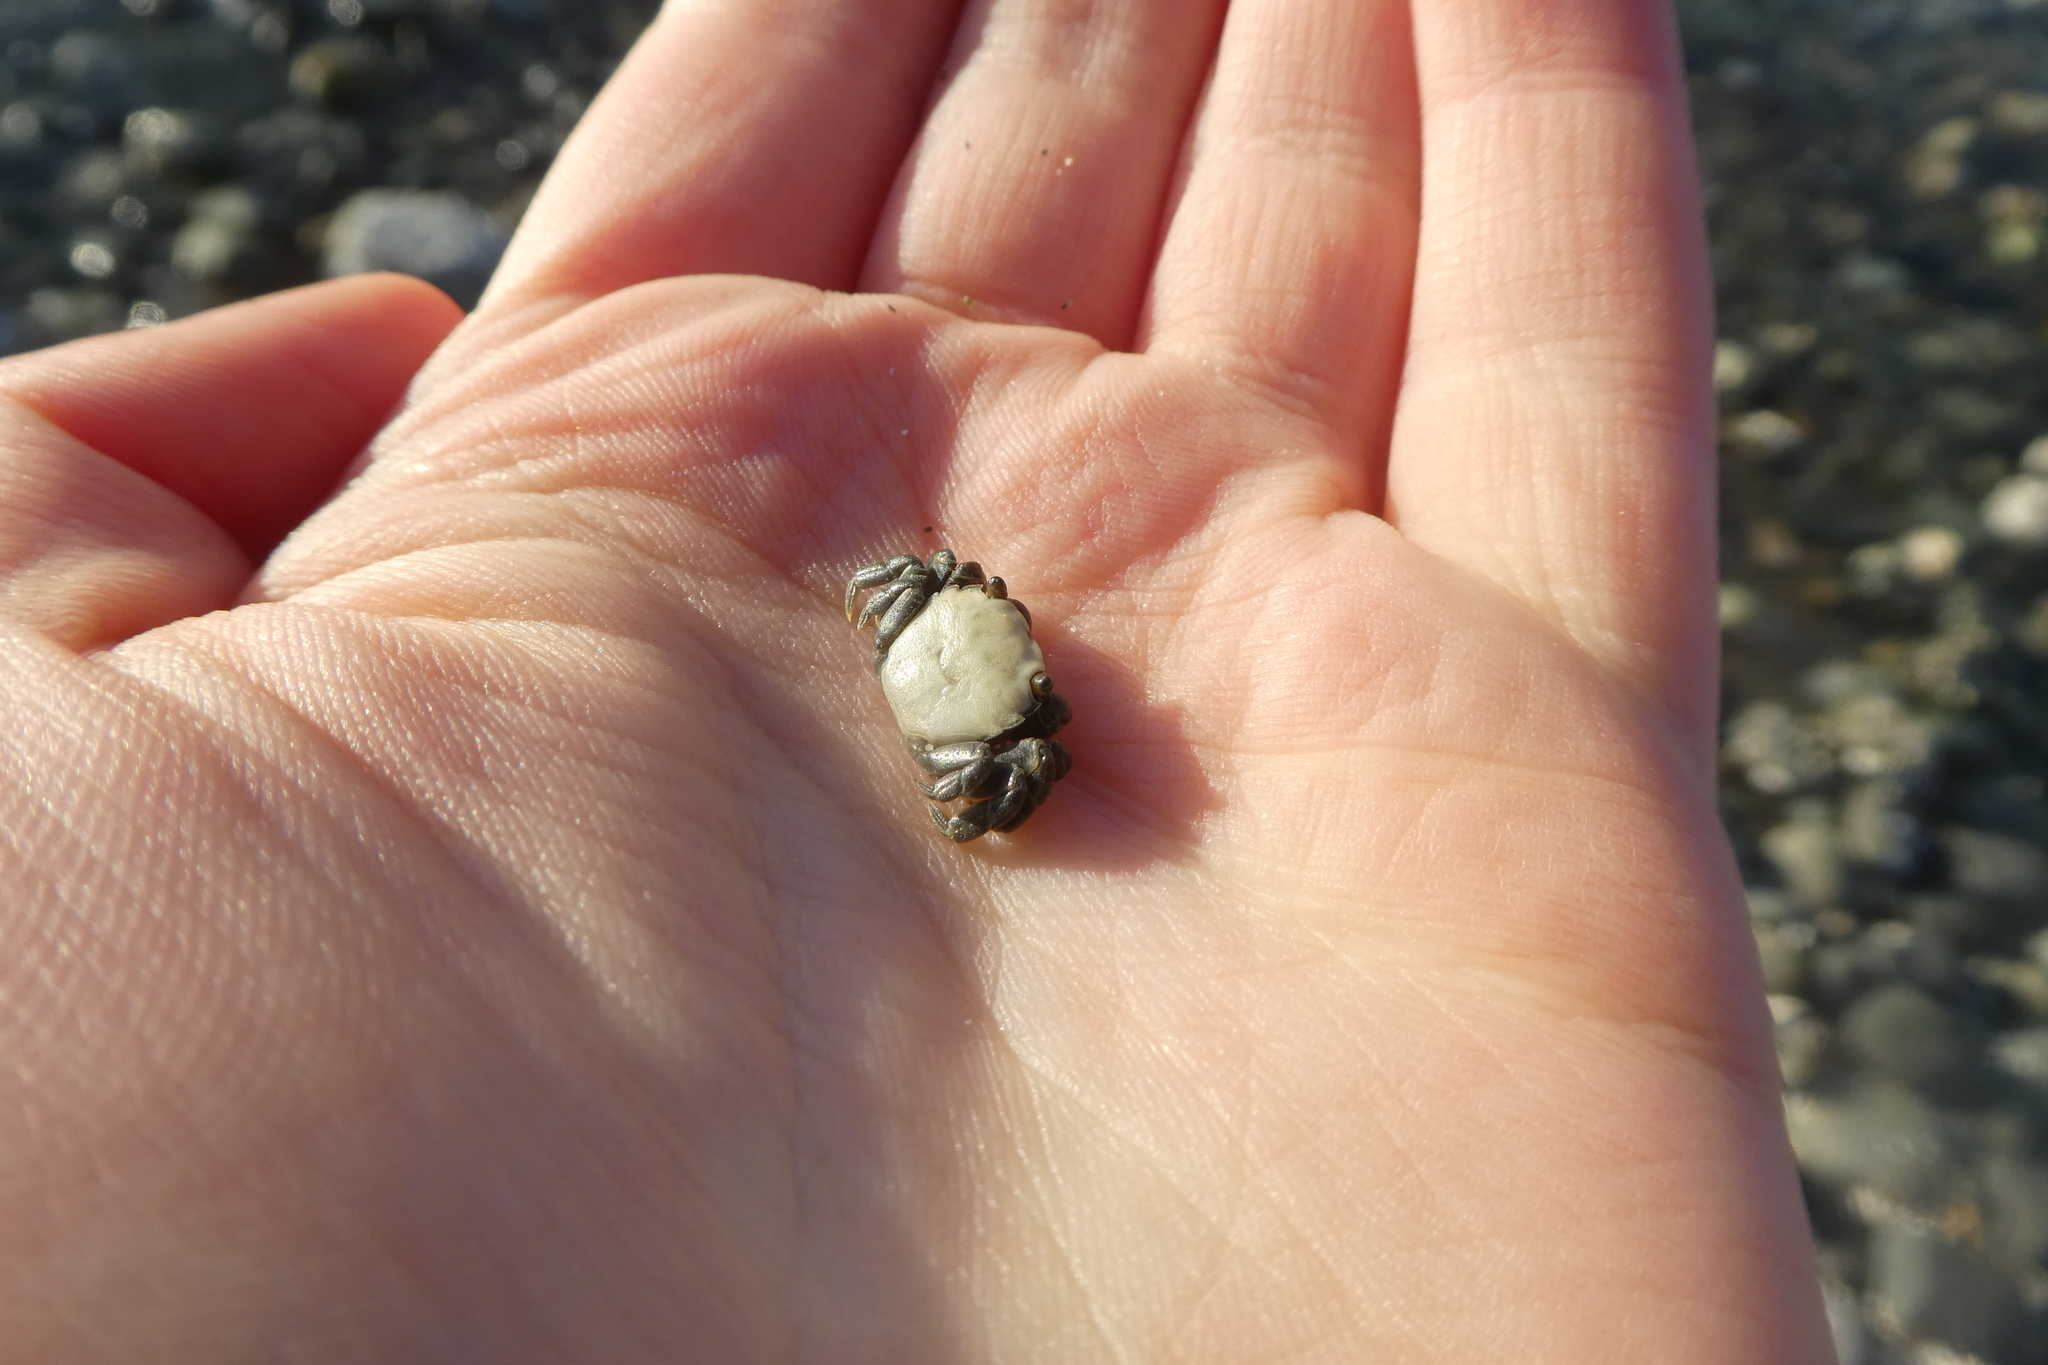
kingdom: Animalia
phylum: Arthropoda
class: Malacostraca
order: Decapoda
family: Varunidae
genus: Hemigrapsus
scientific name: Hemigrapsus nudus
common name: Purple shore crab
